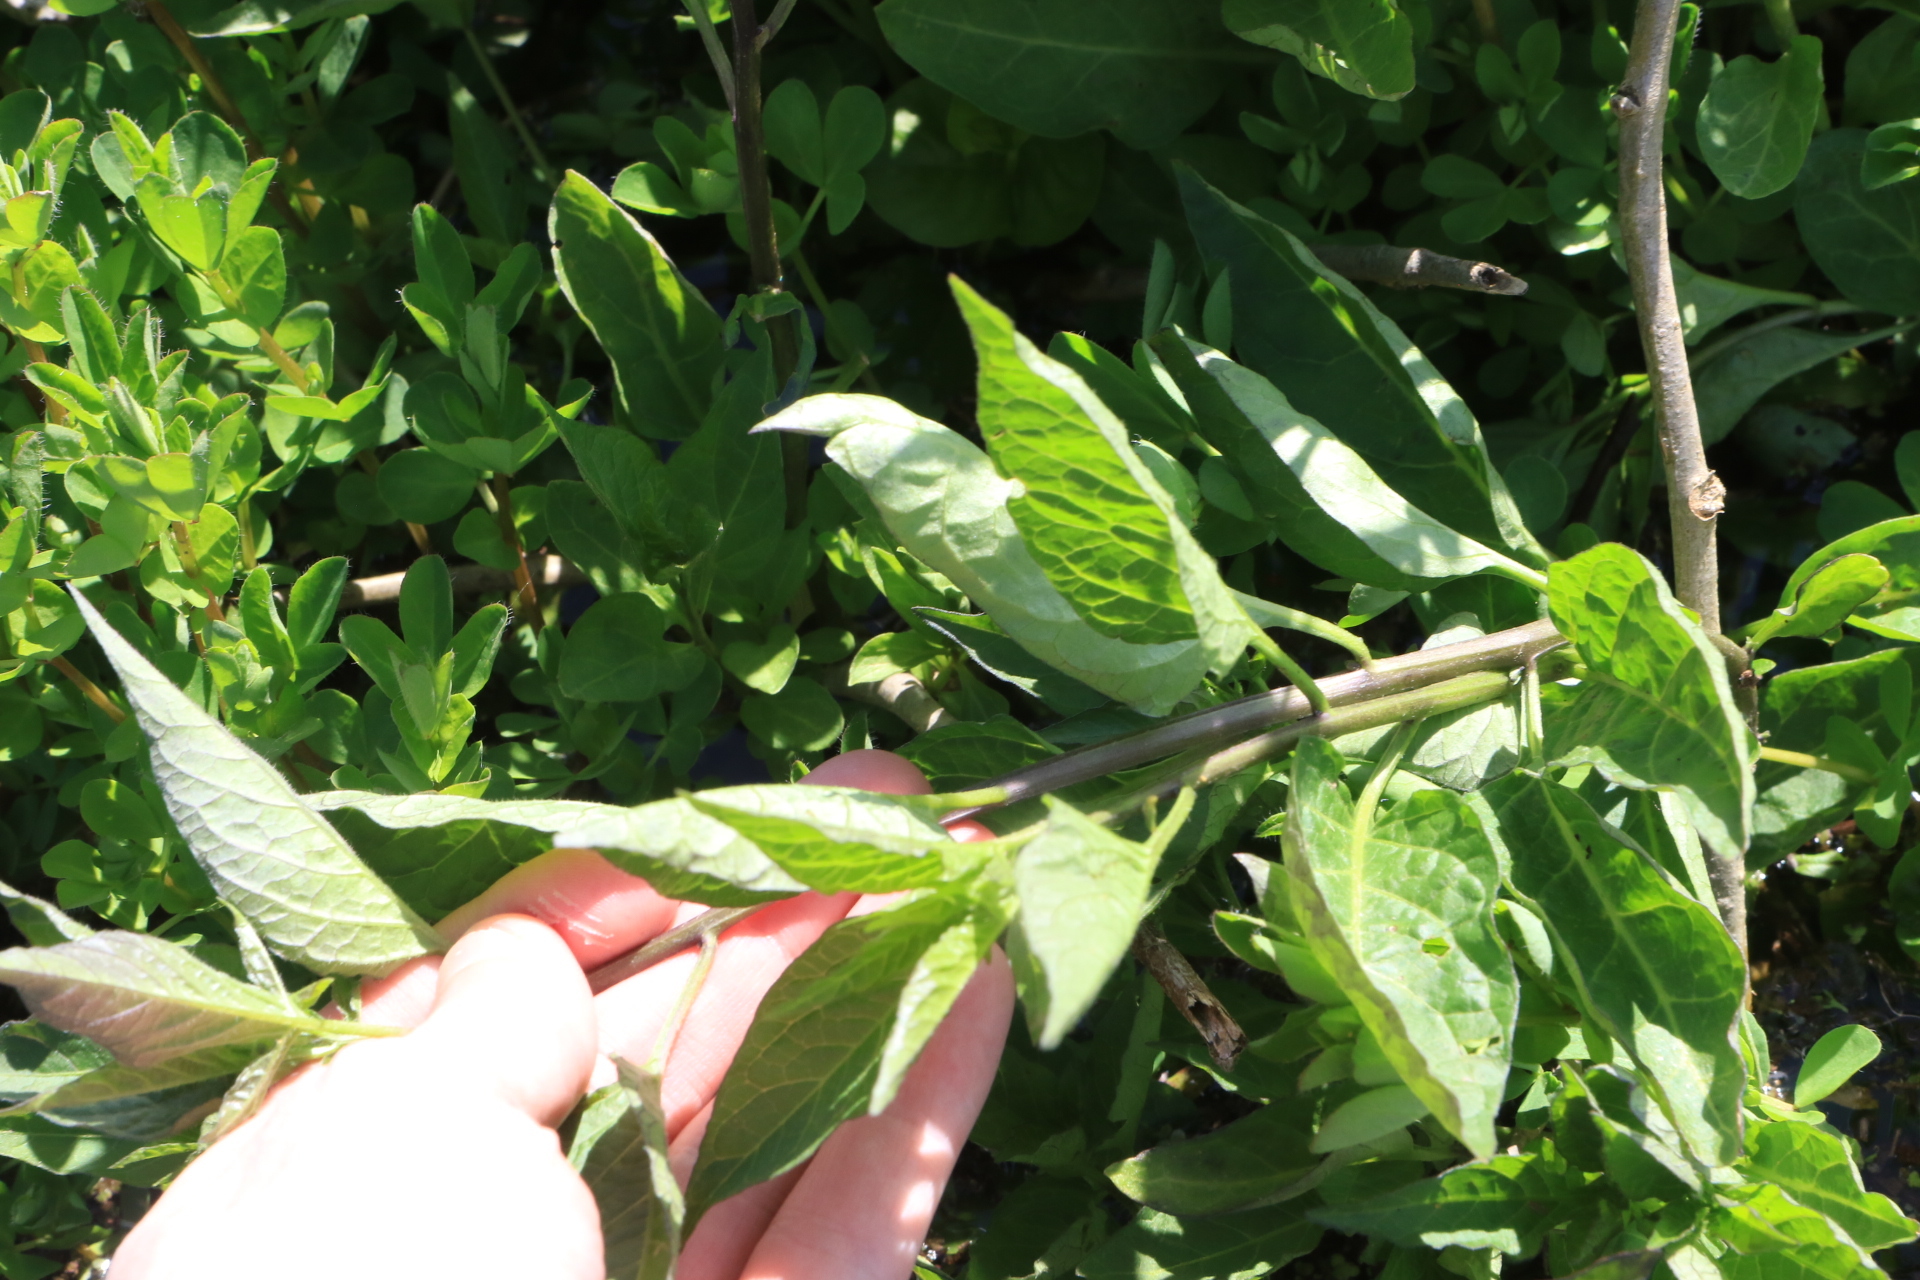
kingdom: Plantae
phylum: Tracheophyta
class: Magnoliopsida
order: Solanales
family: Solanaceae
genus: Solanum
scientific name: Solanum dulcamara
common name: Climbing nightshade
